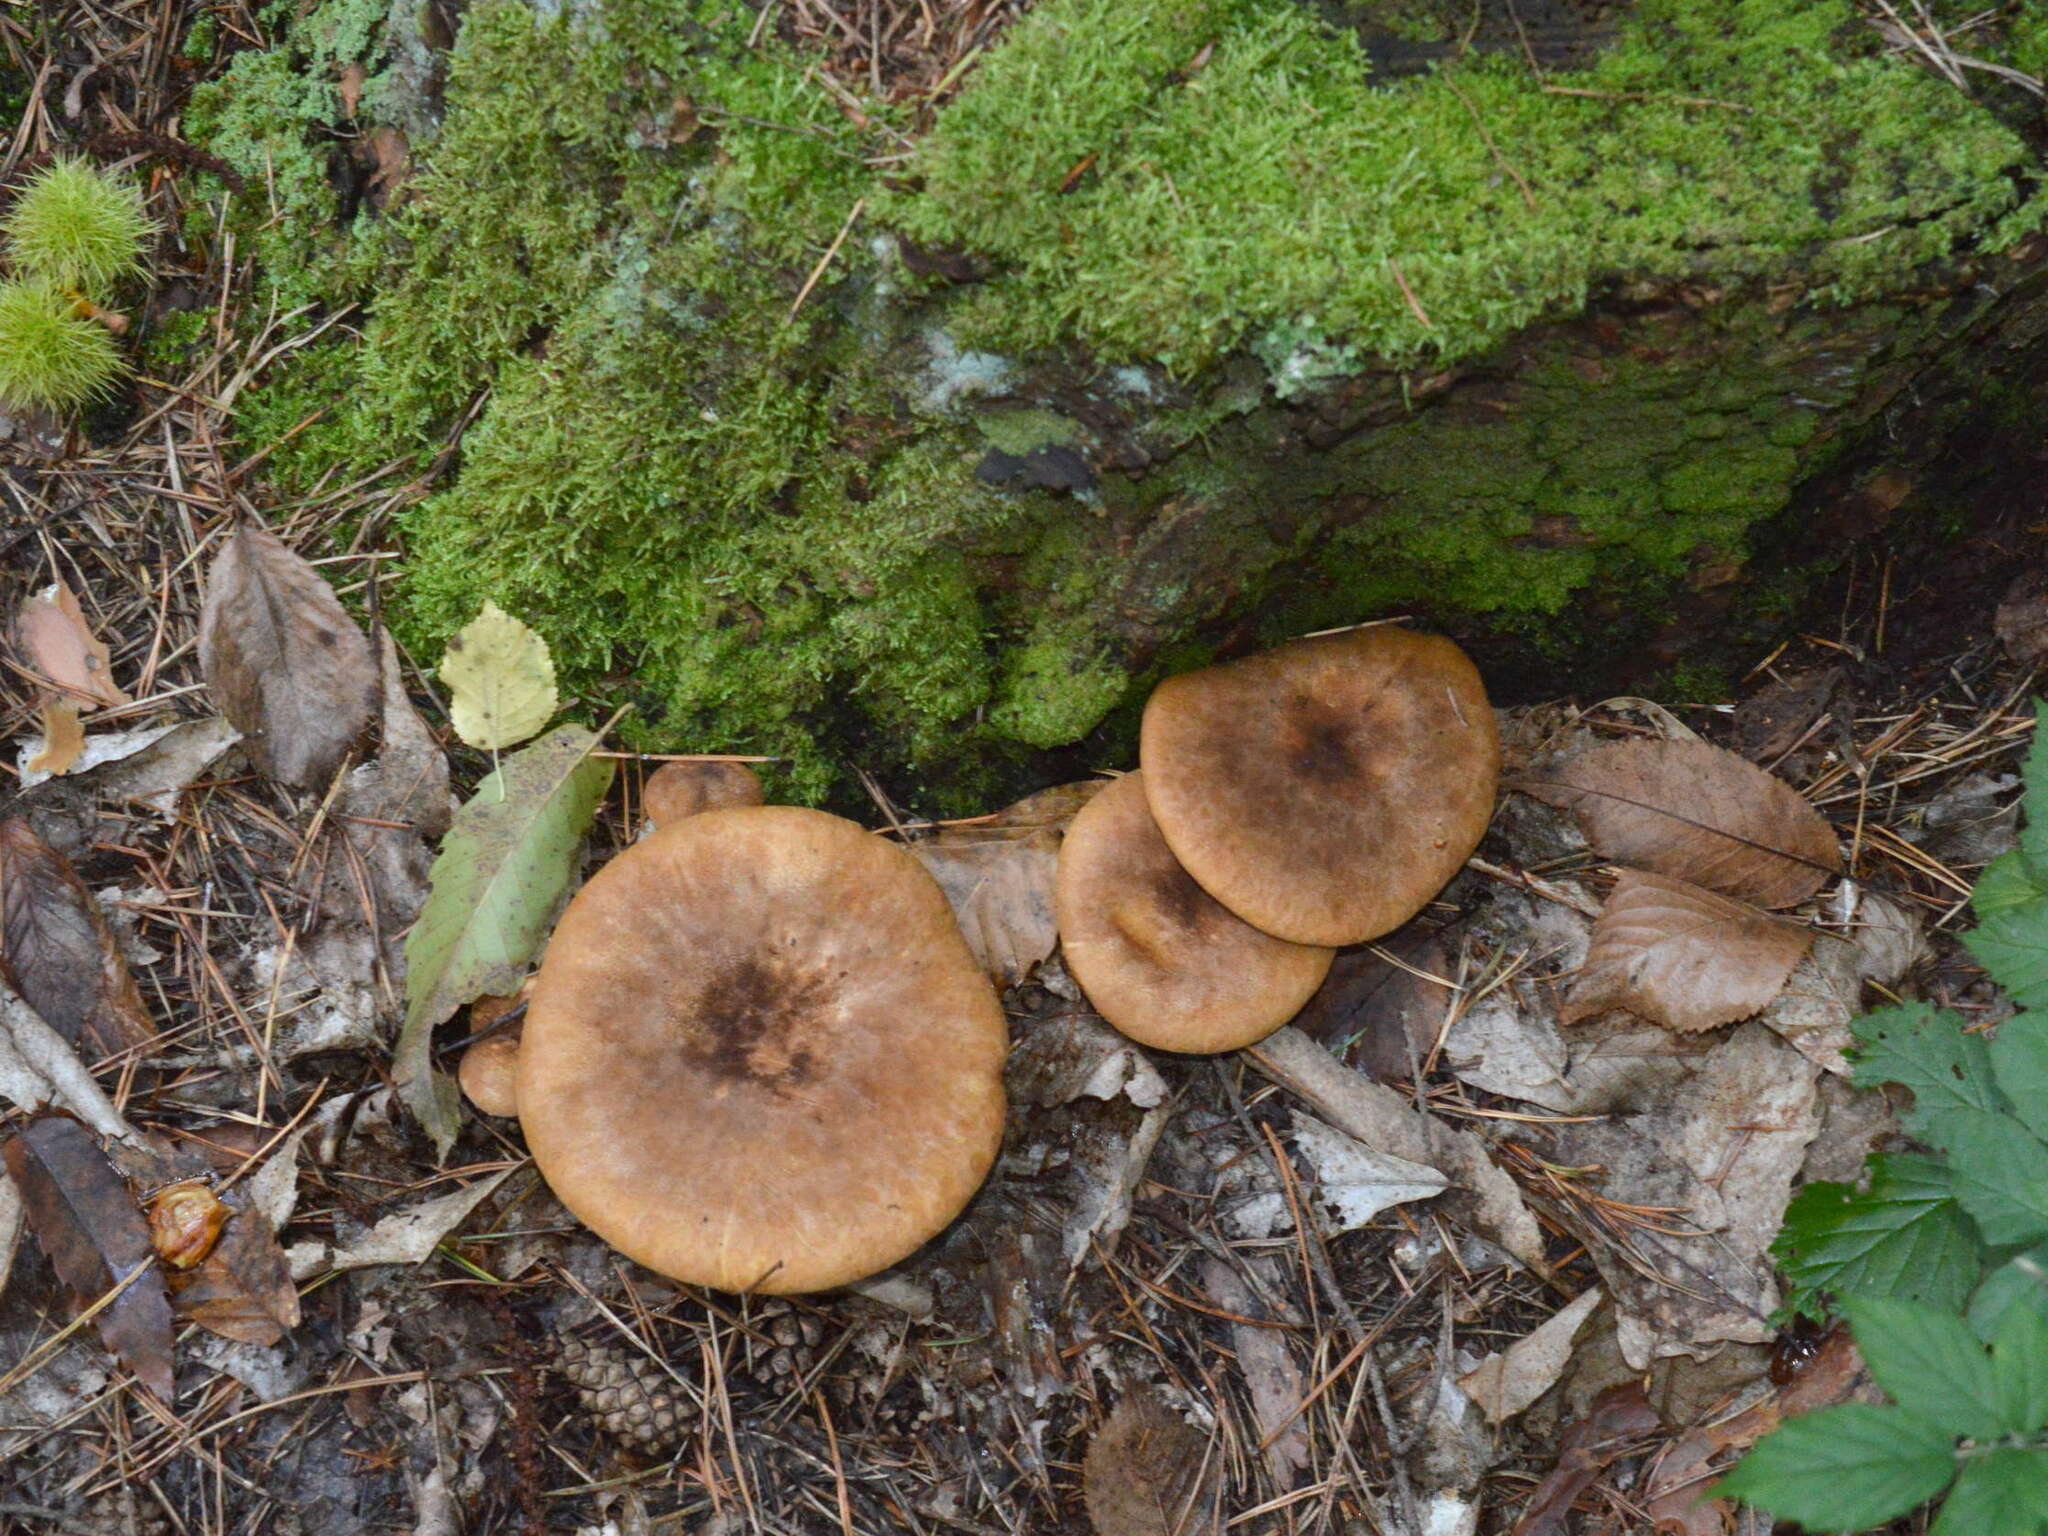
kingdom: Fungi
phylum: Basidiomycota
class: Agaricomycetes
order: Boletales
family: Tapinellaceae
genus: Tapinella
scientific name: Tapinella atrotomentosa
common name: Velvet rollrim
